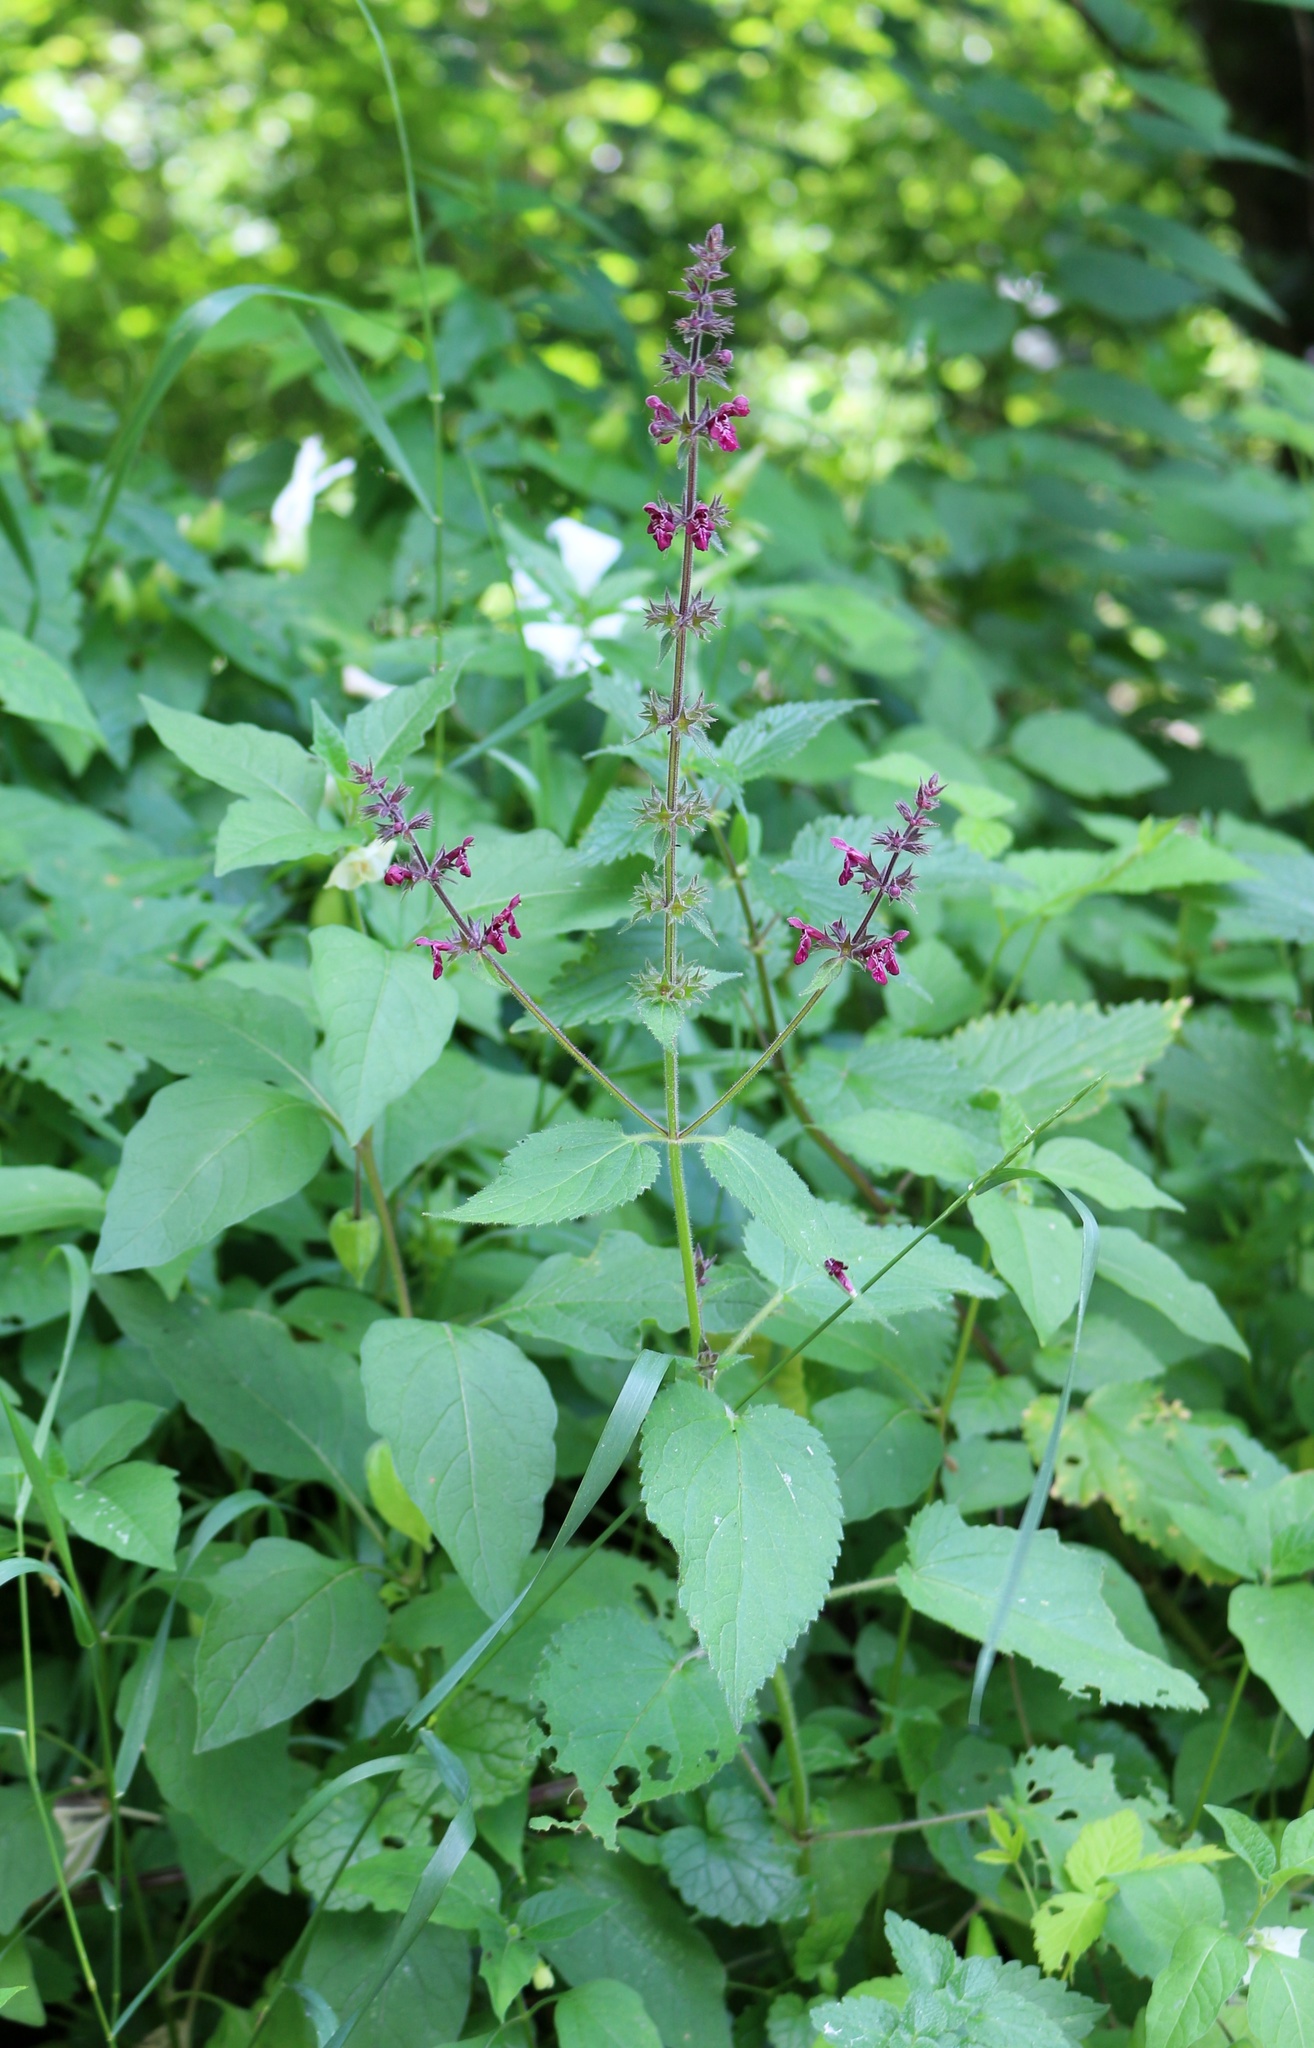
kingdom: Plantae
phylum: Tracheophyta
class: Magnoliopsida
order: Lamiales
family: Lamiaceae
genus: Stachys
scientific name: Stachys sylvatica
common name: Hedge woundwort
